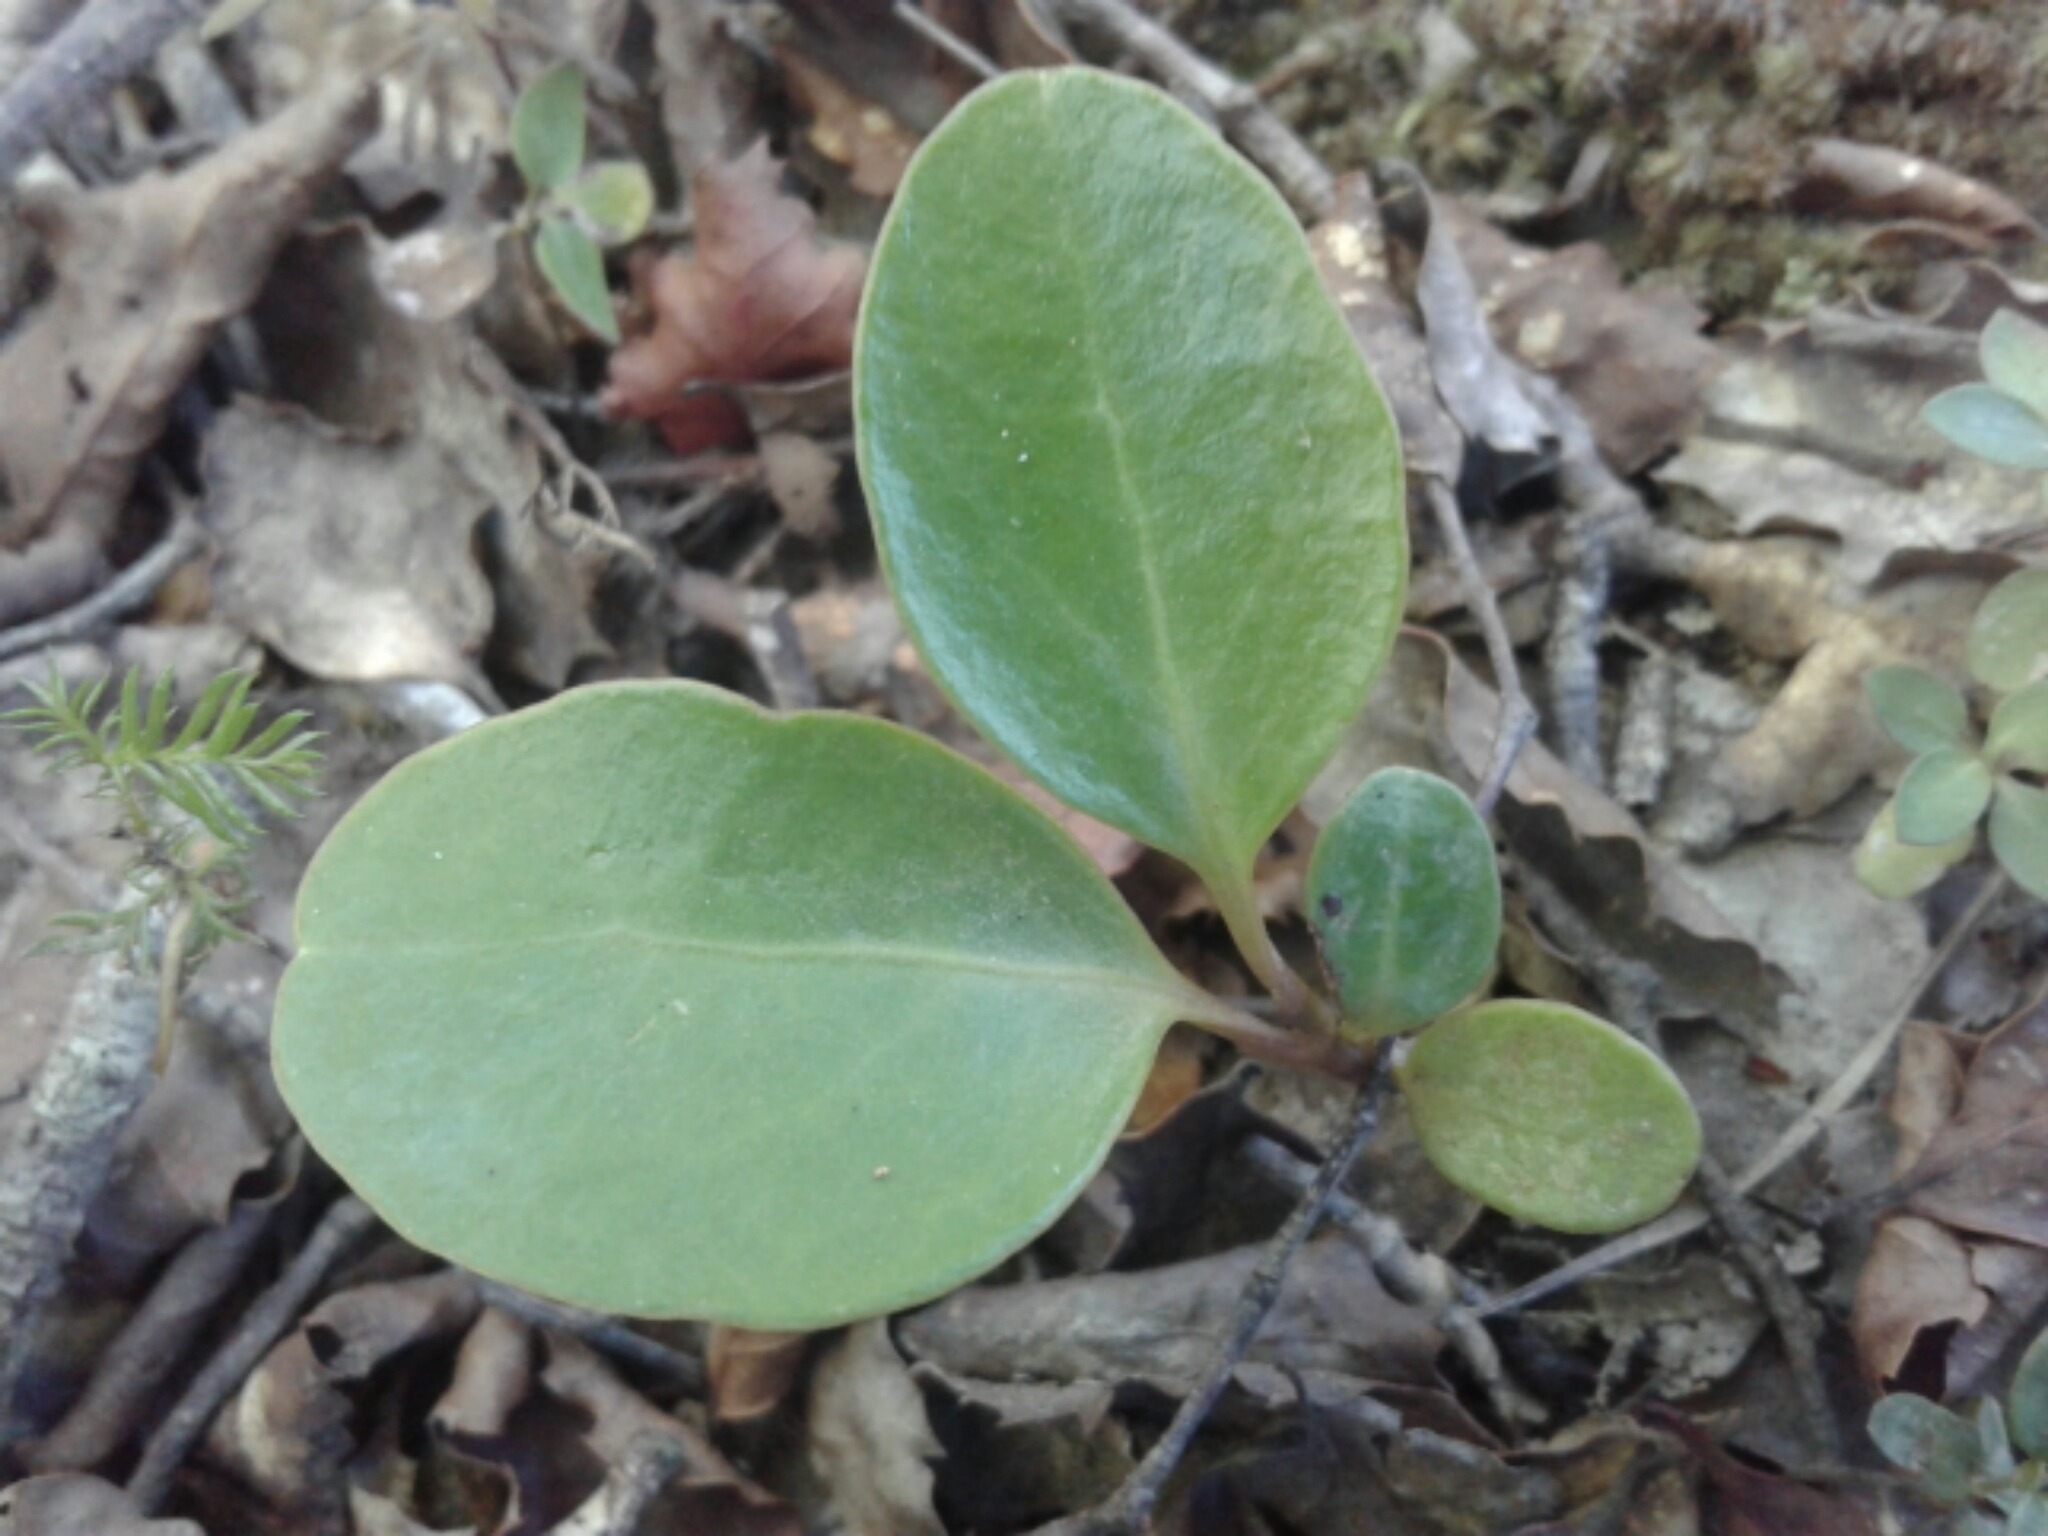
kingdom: Plantae
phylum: Tracheophyta
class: Magnoliopsida
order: Apiales
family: Griseliniaceae
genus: Griselinia
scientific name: Griselinia littoralis
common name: New zealand broadleaf
